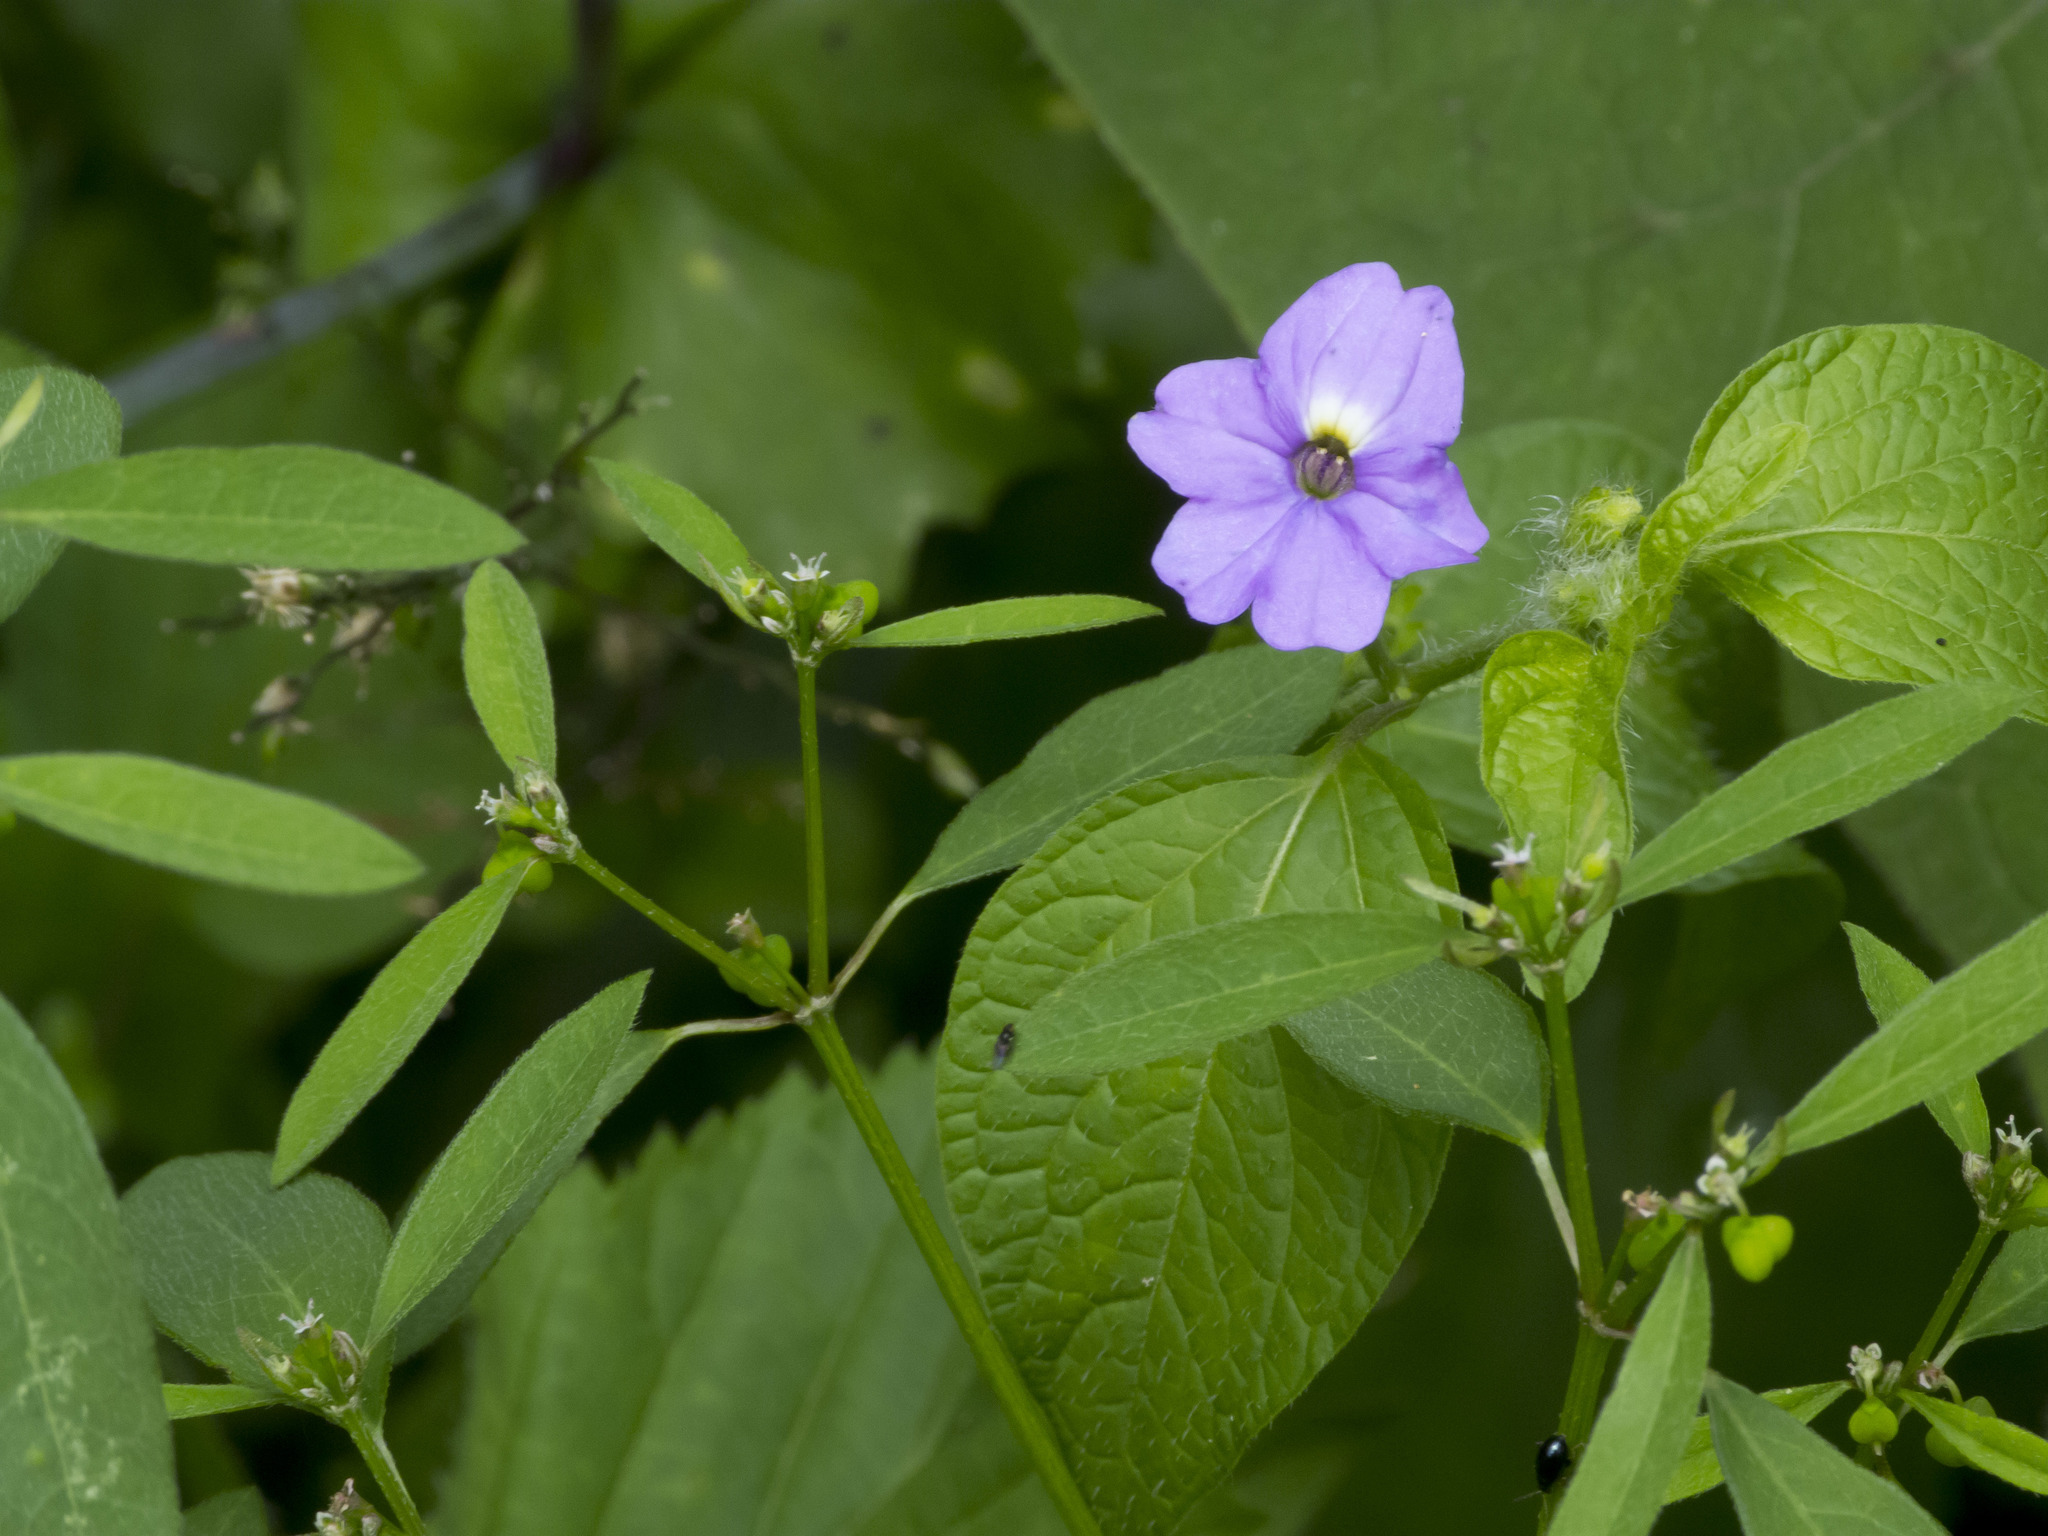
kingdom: Plantae
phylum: Tracheophyta
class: Magnoliopsida
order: Solanales
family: Solanaceae
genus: Browallia
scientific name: Browallia americana
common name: Jamaican forget-me-not
